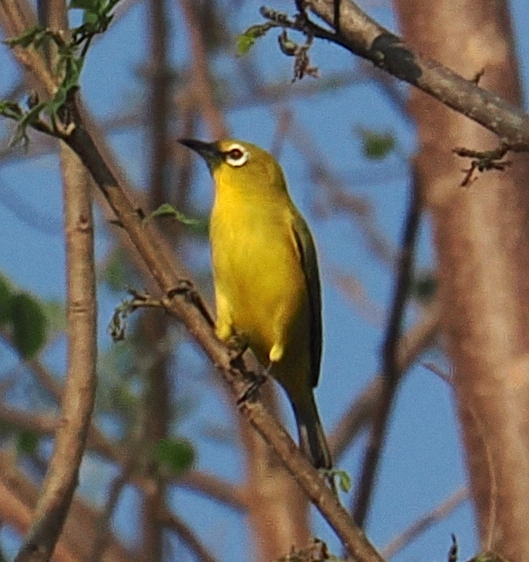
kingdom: Animalia
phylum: Chordata
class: Aves
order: Passeriformes
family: Zosteropidae
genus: Zosterops
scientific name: Zosterops chloris
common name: Lemon-bellied white-eye
